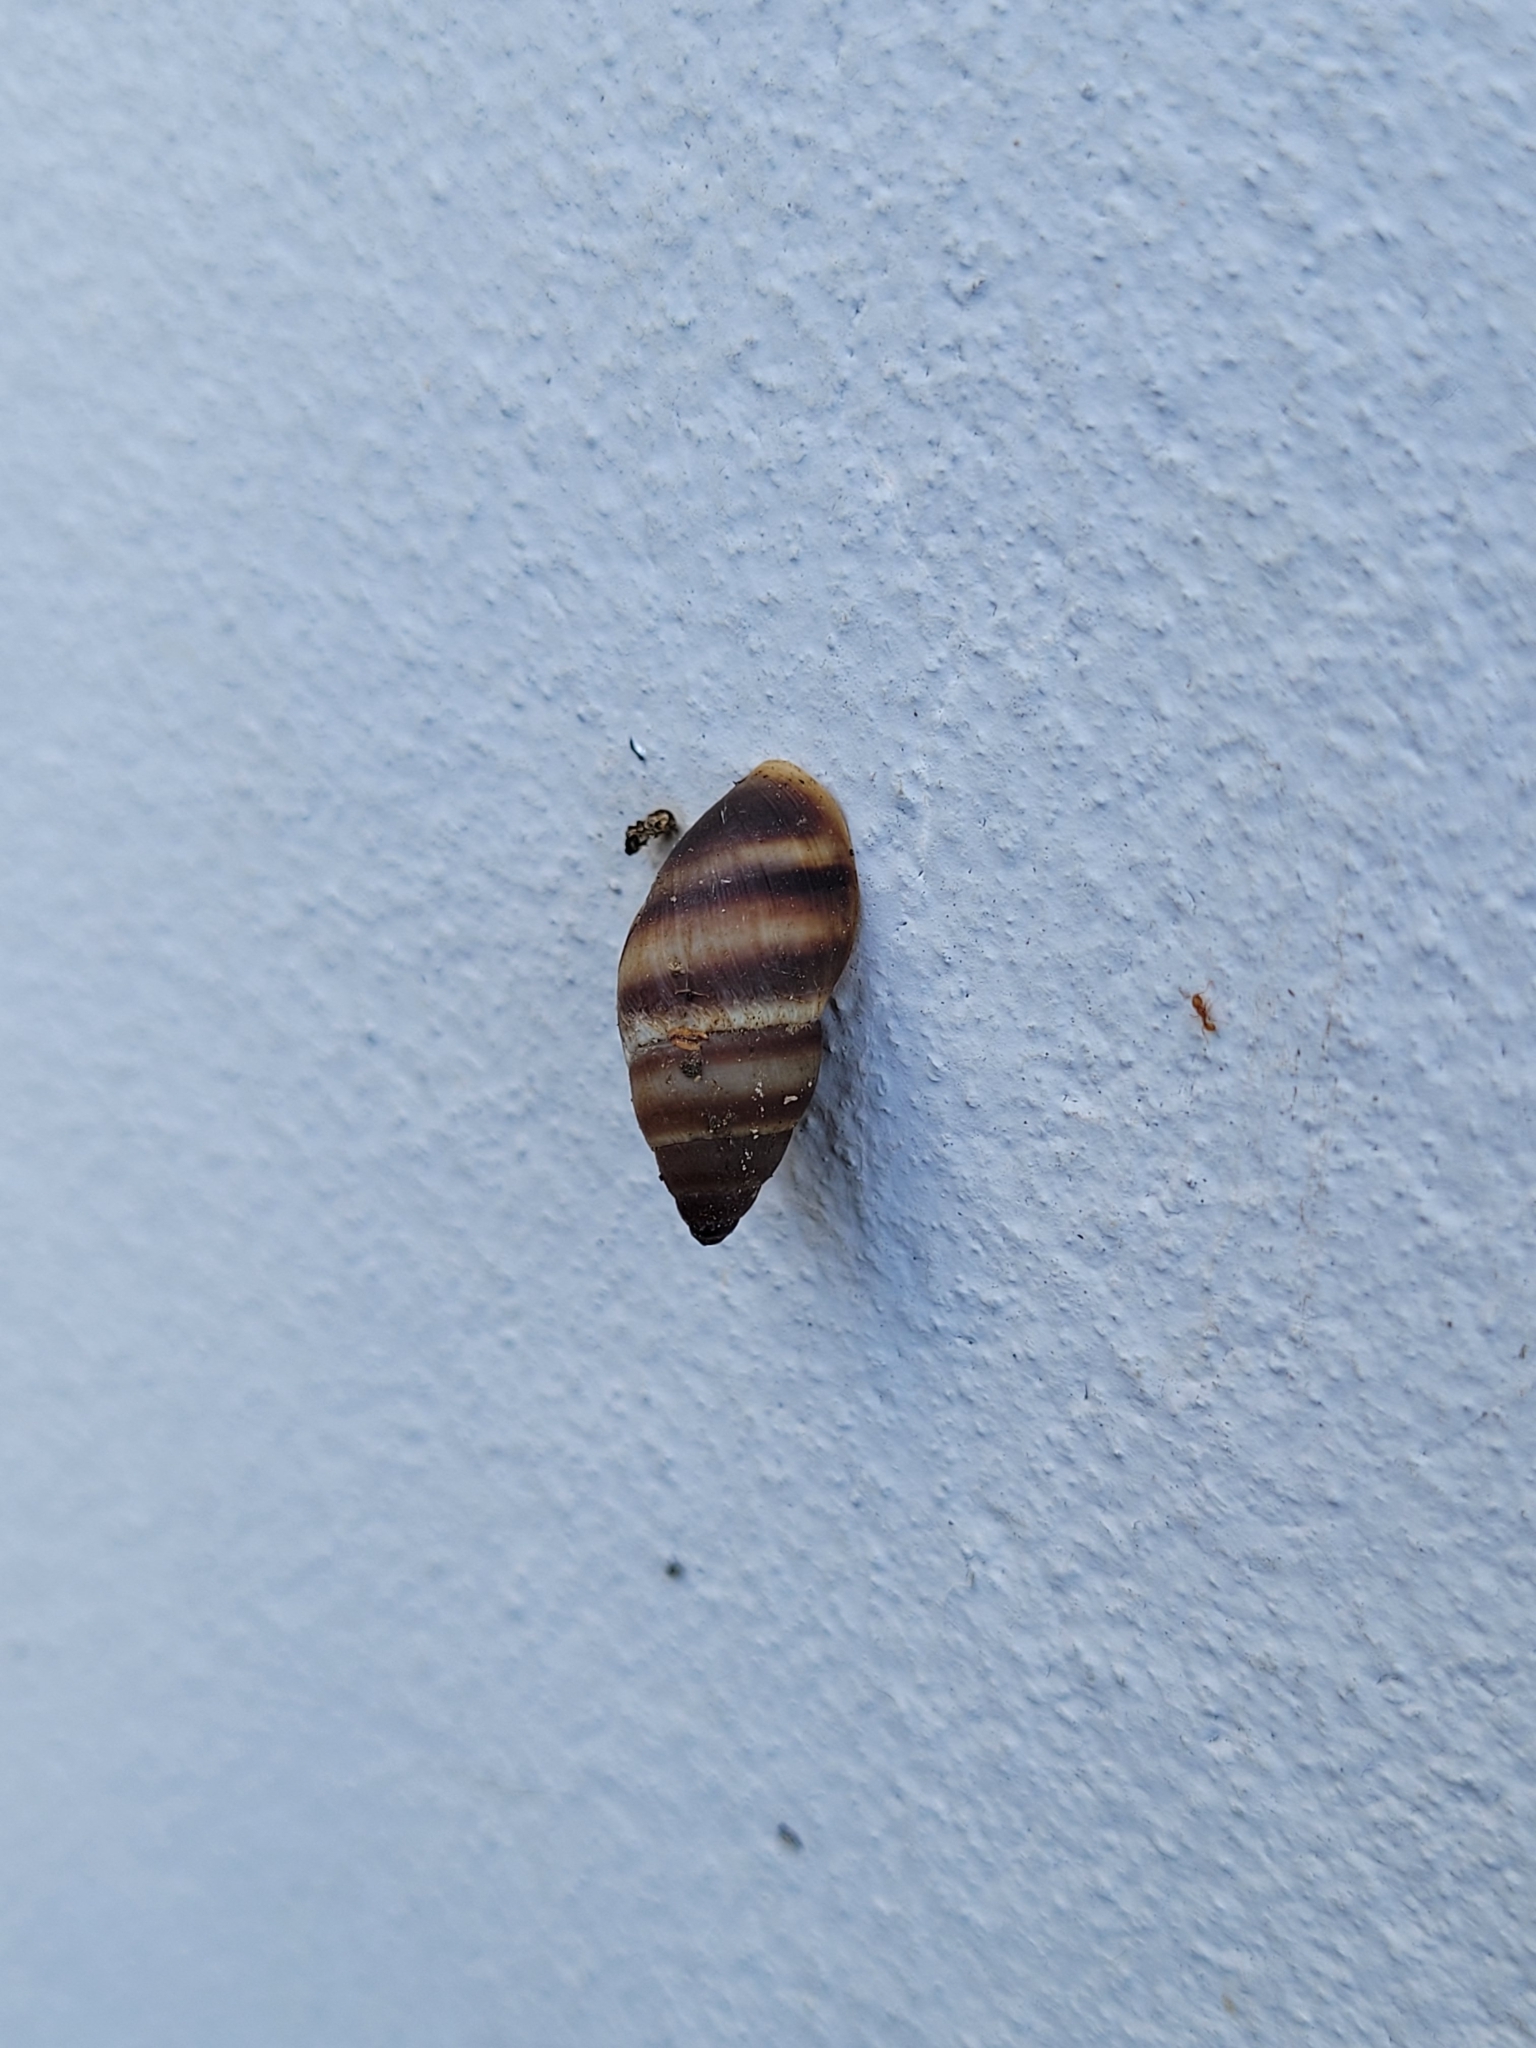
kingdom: Animalia
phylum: Mollusca
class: Gastropoda
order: Stylommatophora
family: Bulimulidae
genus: Bulimulus
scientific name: Bulimulus guadalupensis
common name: West indian bulimulus
